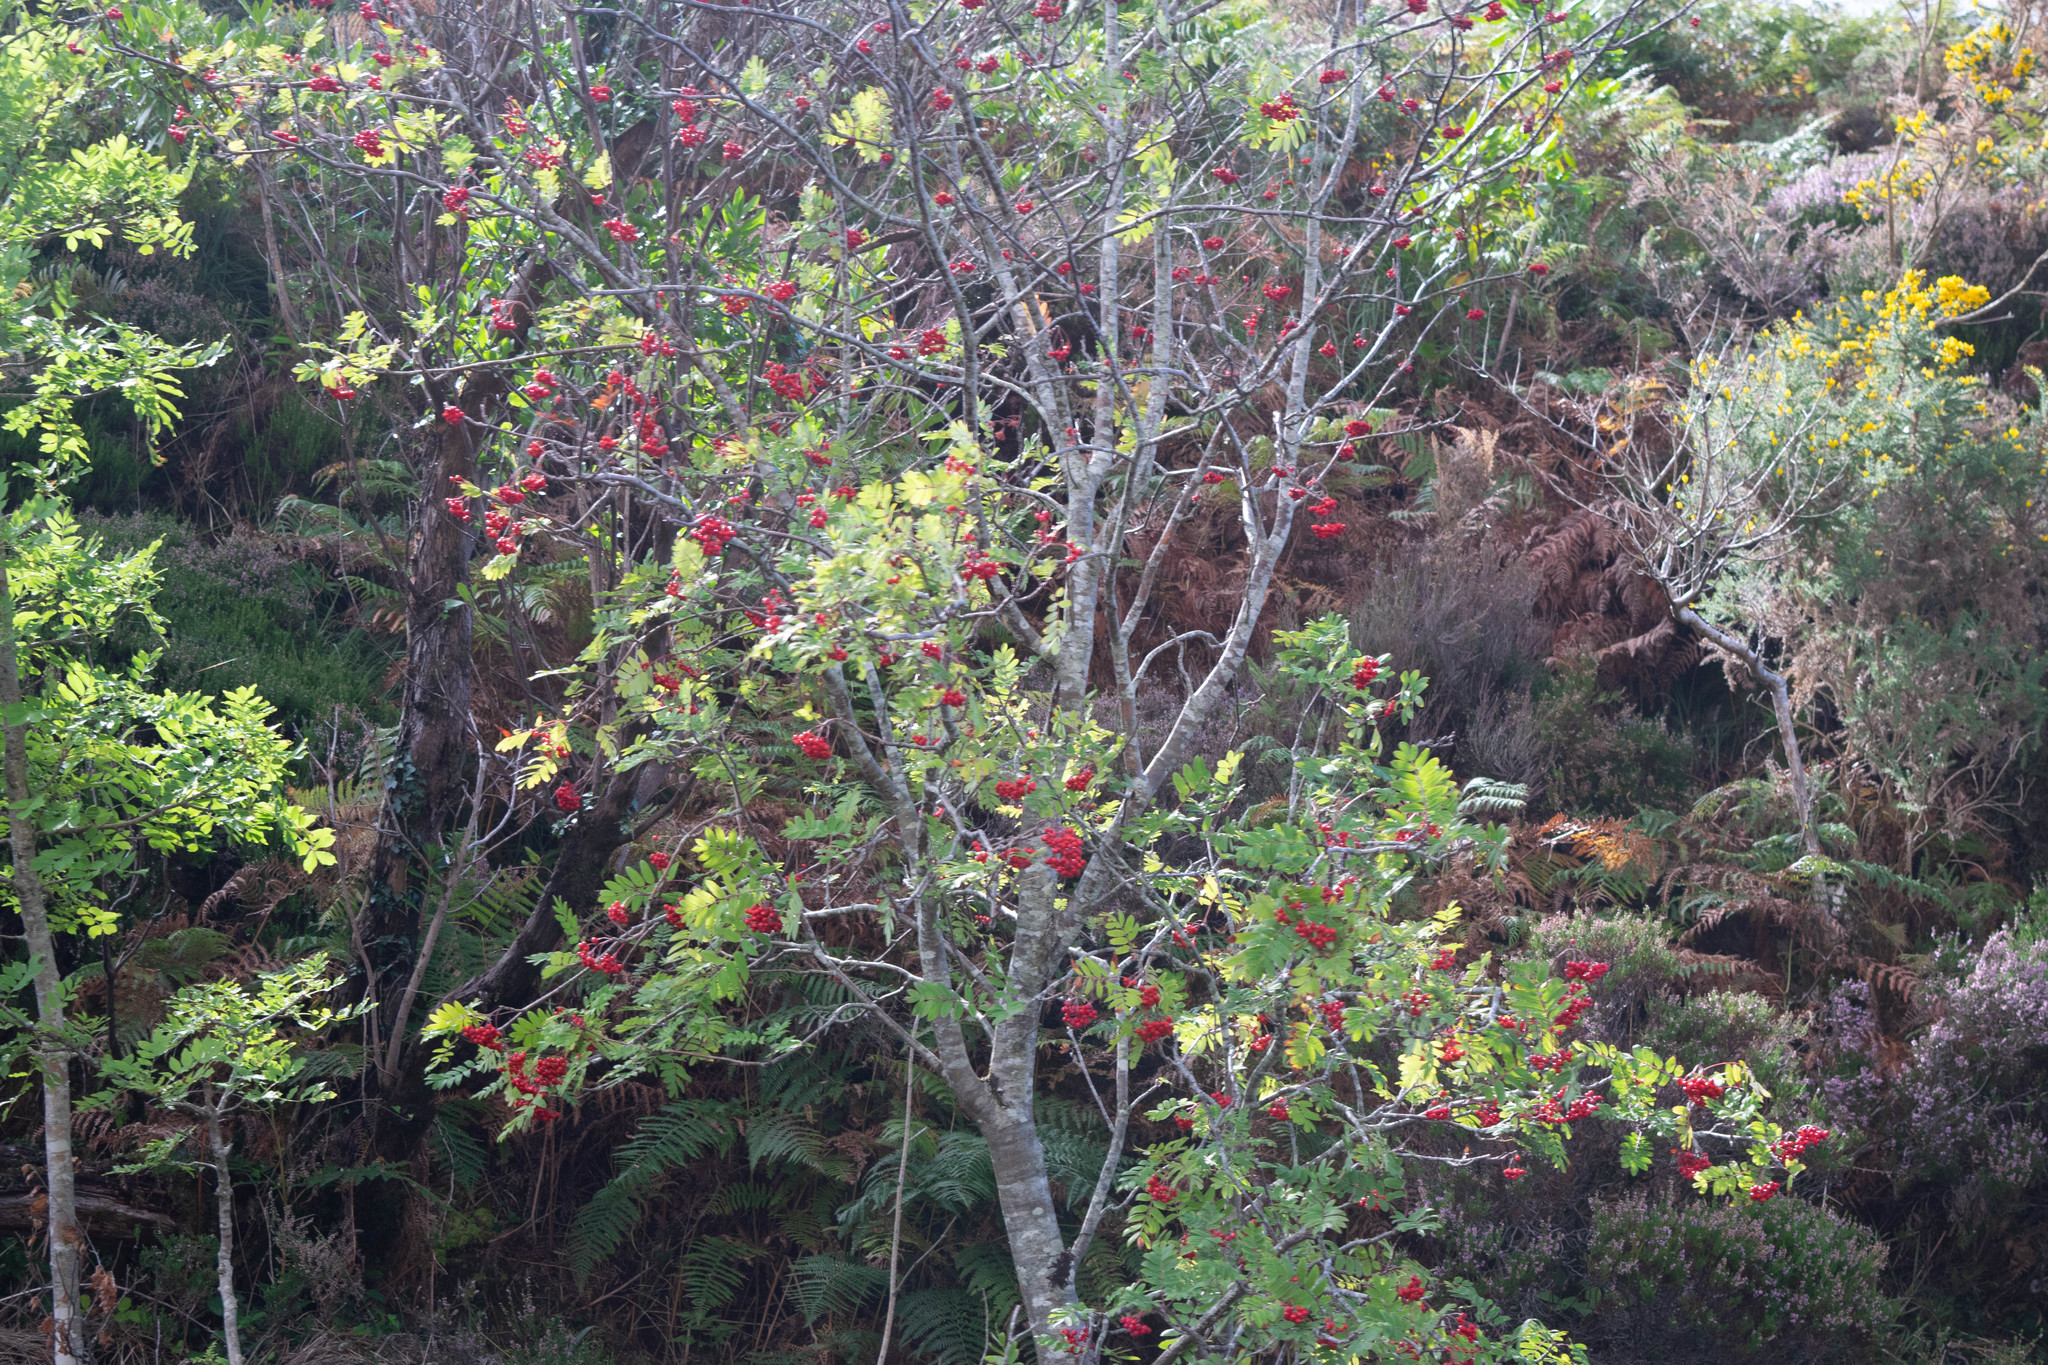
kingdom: Plantae
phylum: Tracheophyta
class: Magnoliopsida
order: Rosales
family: Rosaceae
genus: Sorbus
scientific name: Sorbus aucuparia
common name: Rowan
